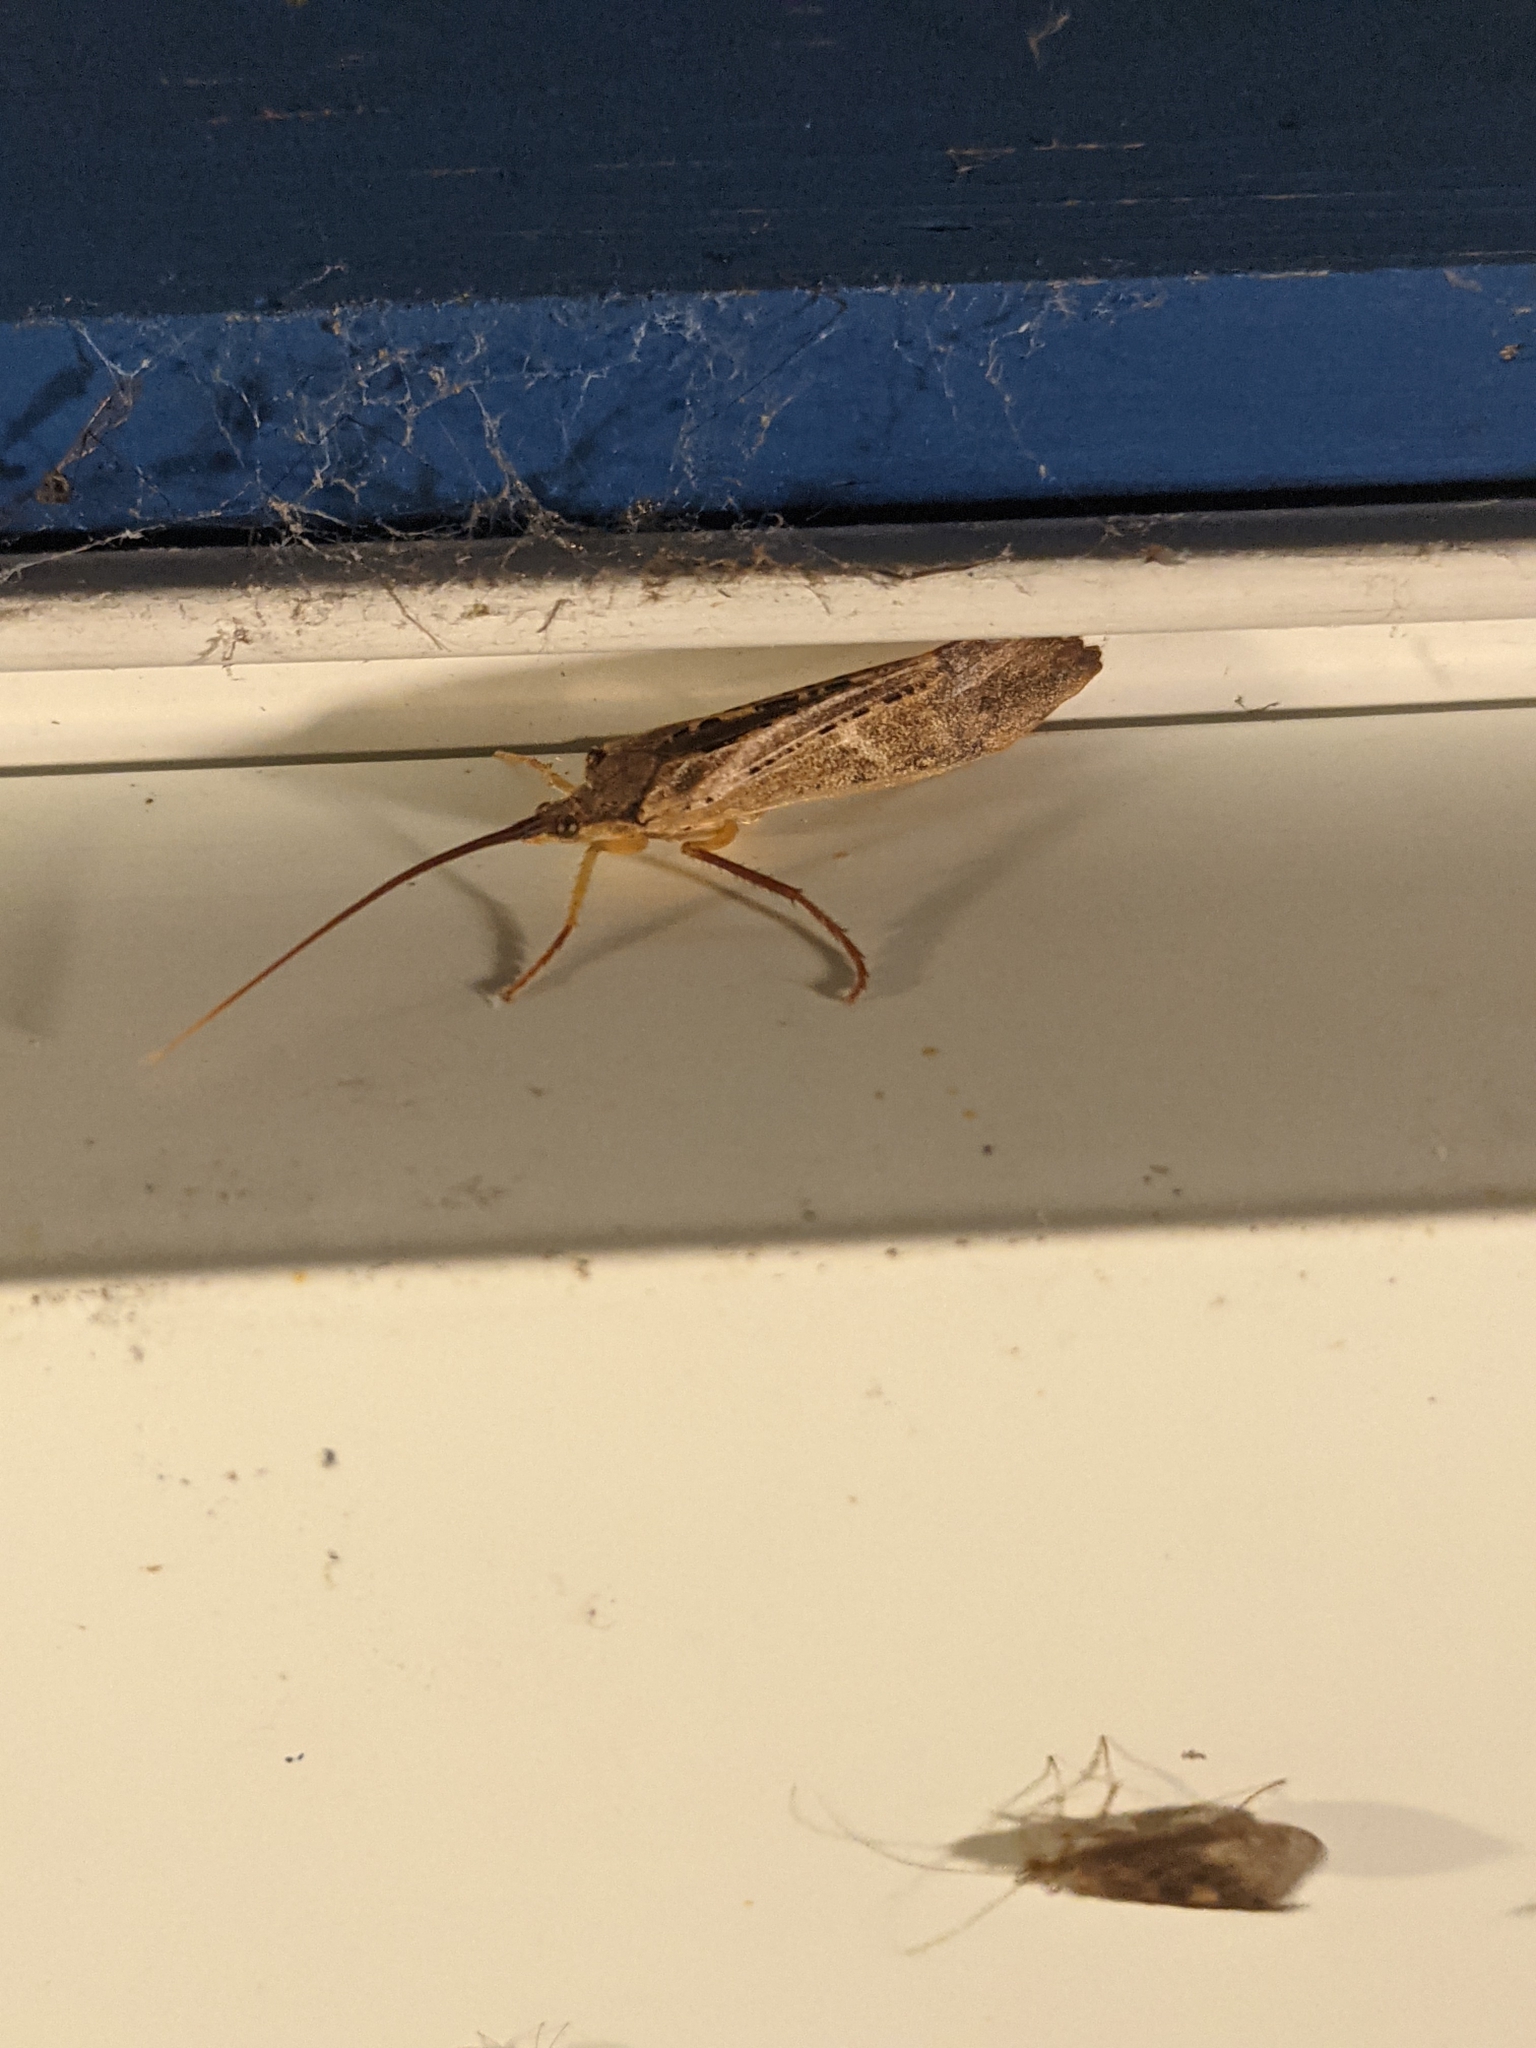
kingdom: Animalia
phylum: Arthropoda
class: Insecta
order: Trichoptera
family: Limnephilidae
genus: Nemotaulius
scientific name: Nemotaulius hostilis
